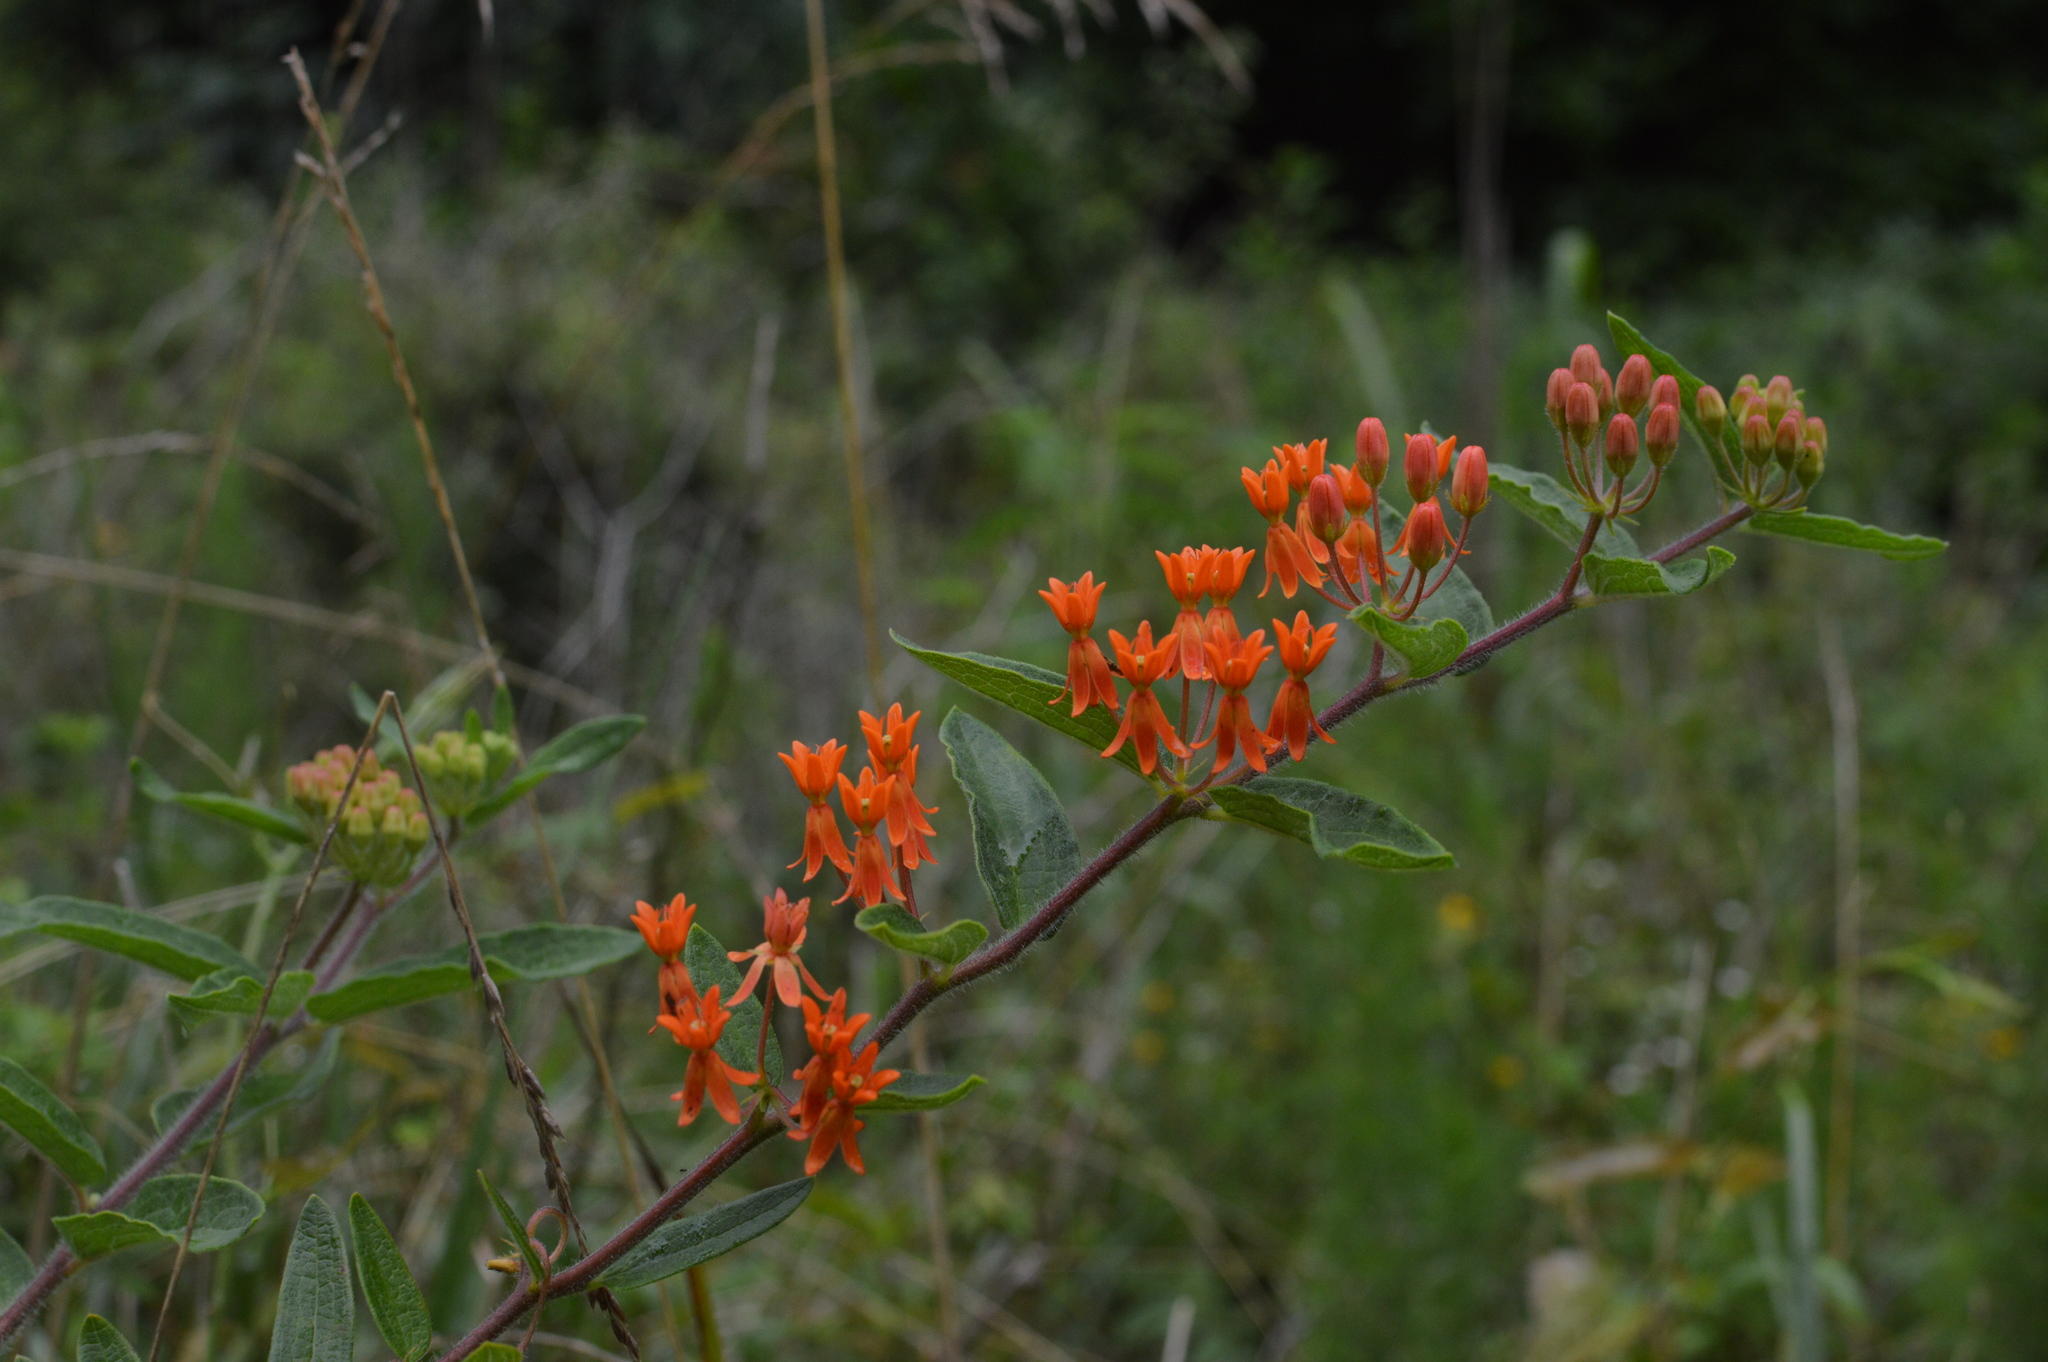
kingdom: Plantae
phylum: Tracheophyta
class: Magnoliopsida
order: Gentianales
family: Apocynaceae
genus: Asclepias
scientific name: Asclepias tuberosa
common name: Butterfly milkweed
